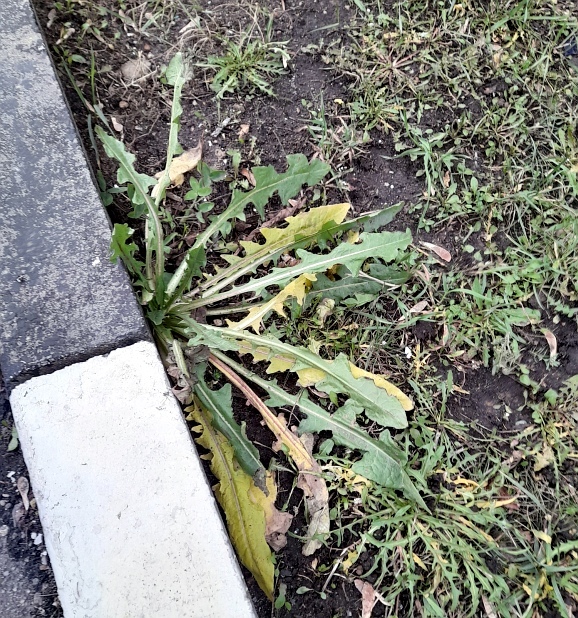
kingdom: Plantae
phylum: Tracheophyta
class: Magnoliopsida
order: Asterales
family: Asteraceae
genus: Taraxacum
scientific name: Taraxacum officinale
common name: Common dandelion
